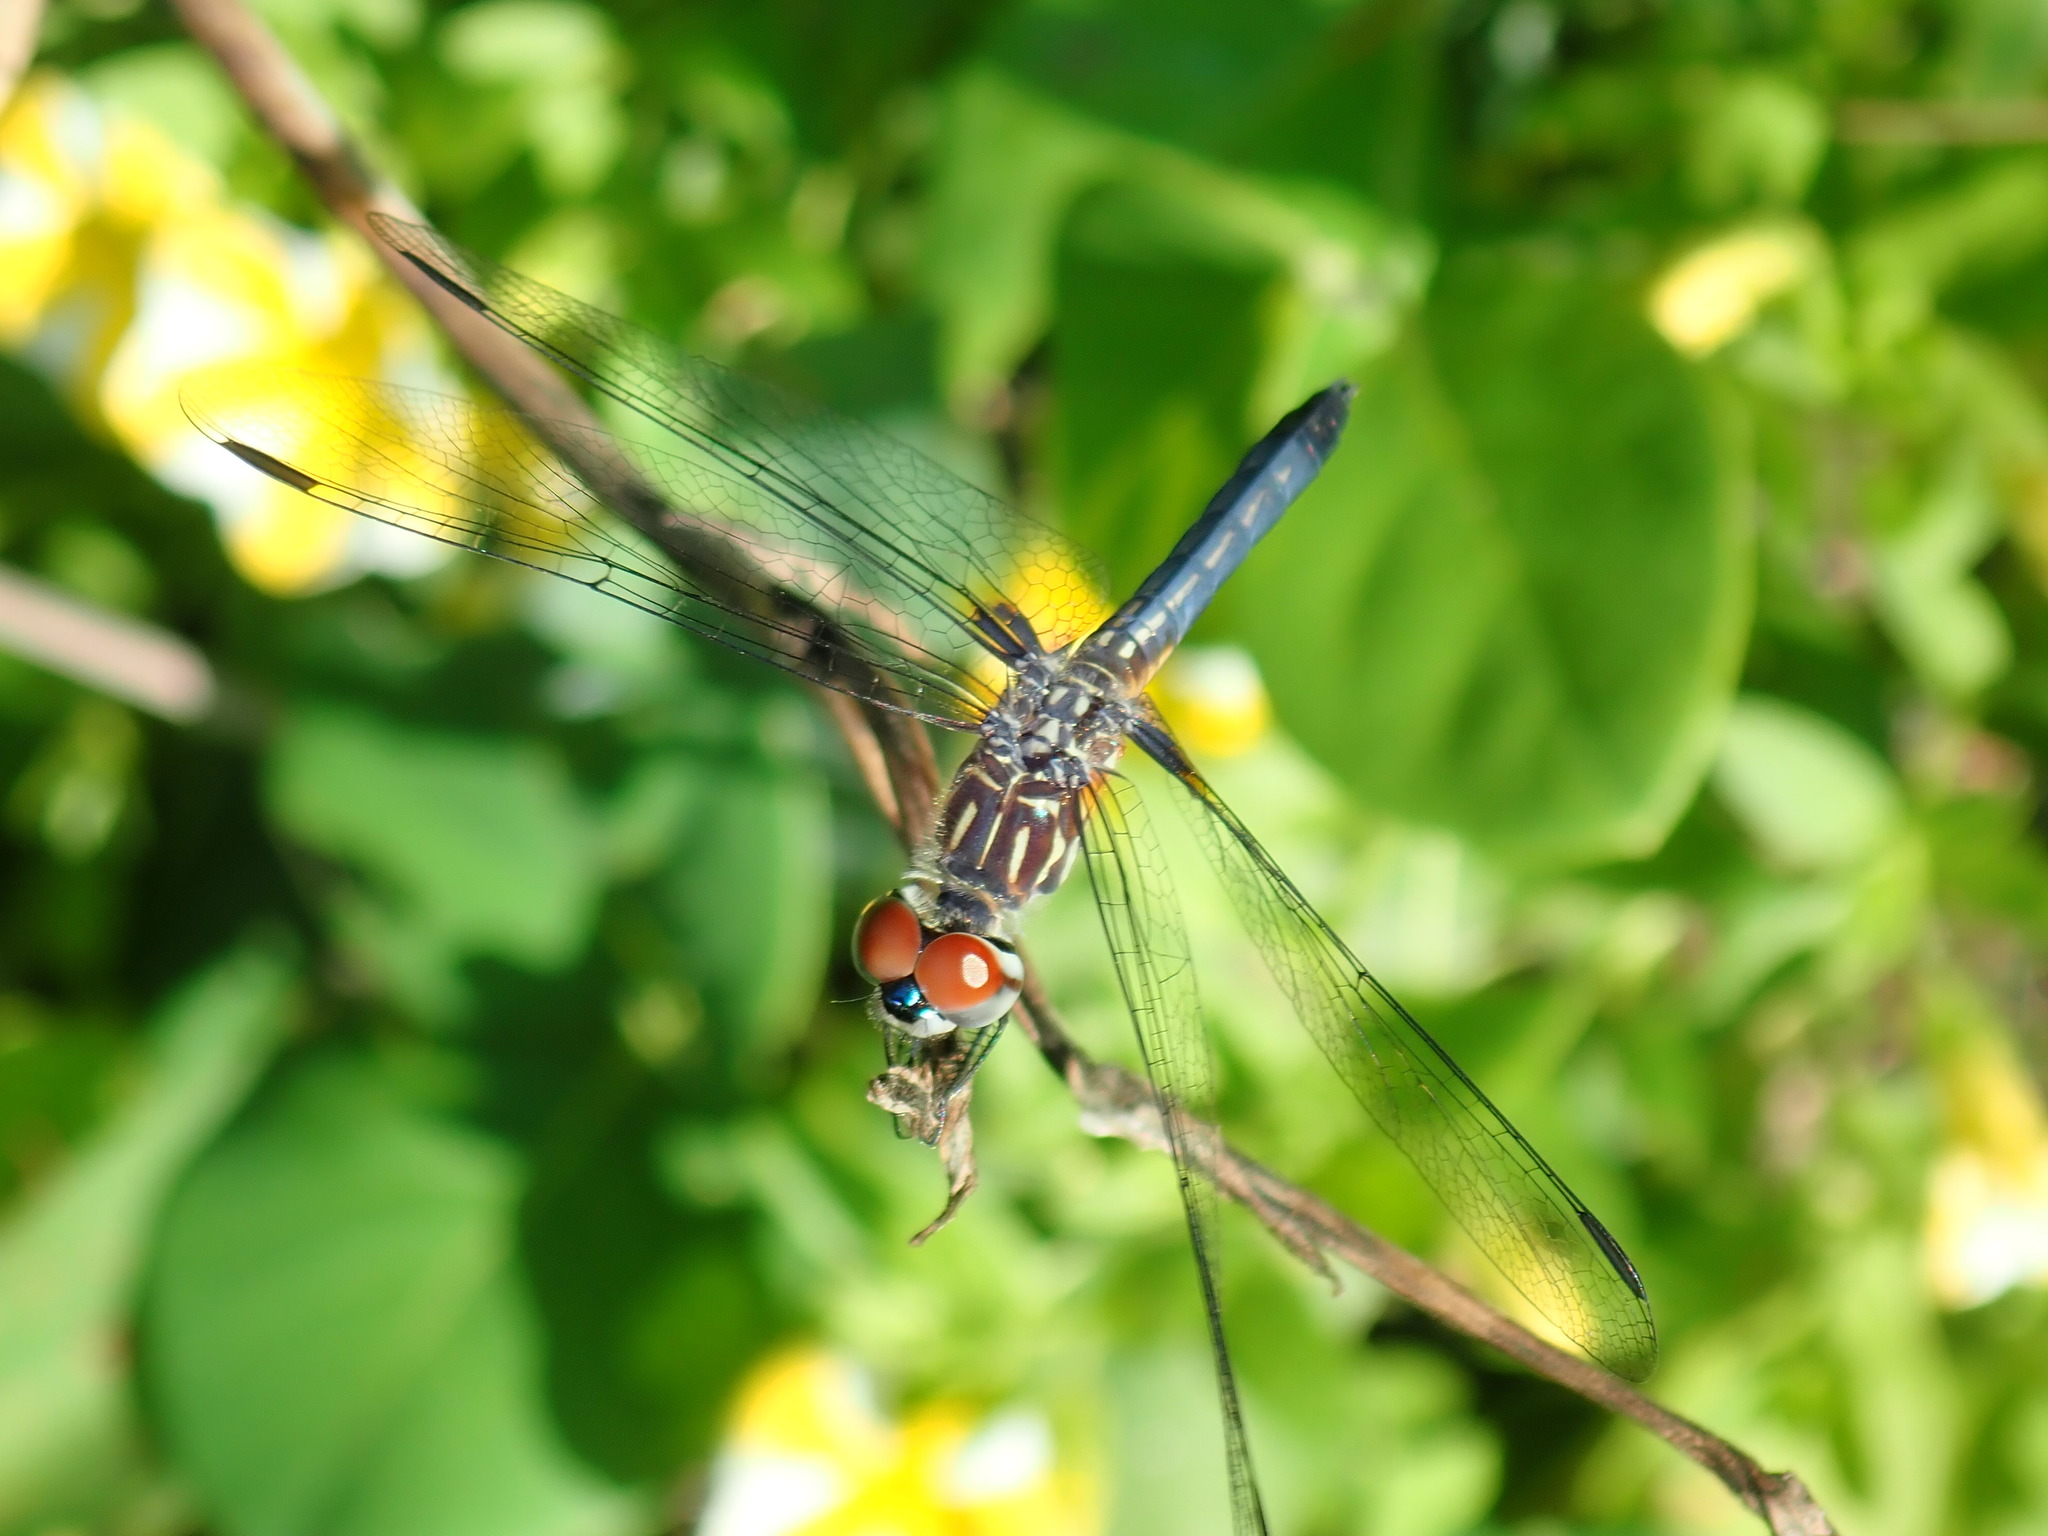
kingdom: Animalia
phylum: Arthropoda
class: Insecta
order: Odonata
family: Libellulidae
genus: Pachydiplax
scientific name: Pachydiplax longipennis
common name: Blue dasher
